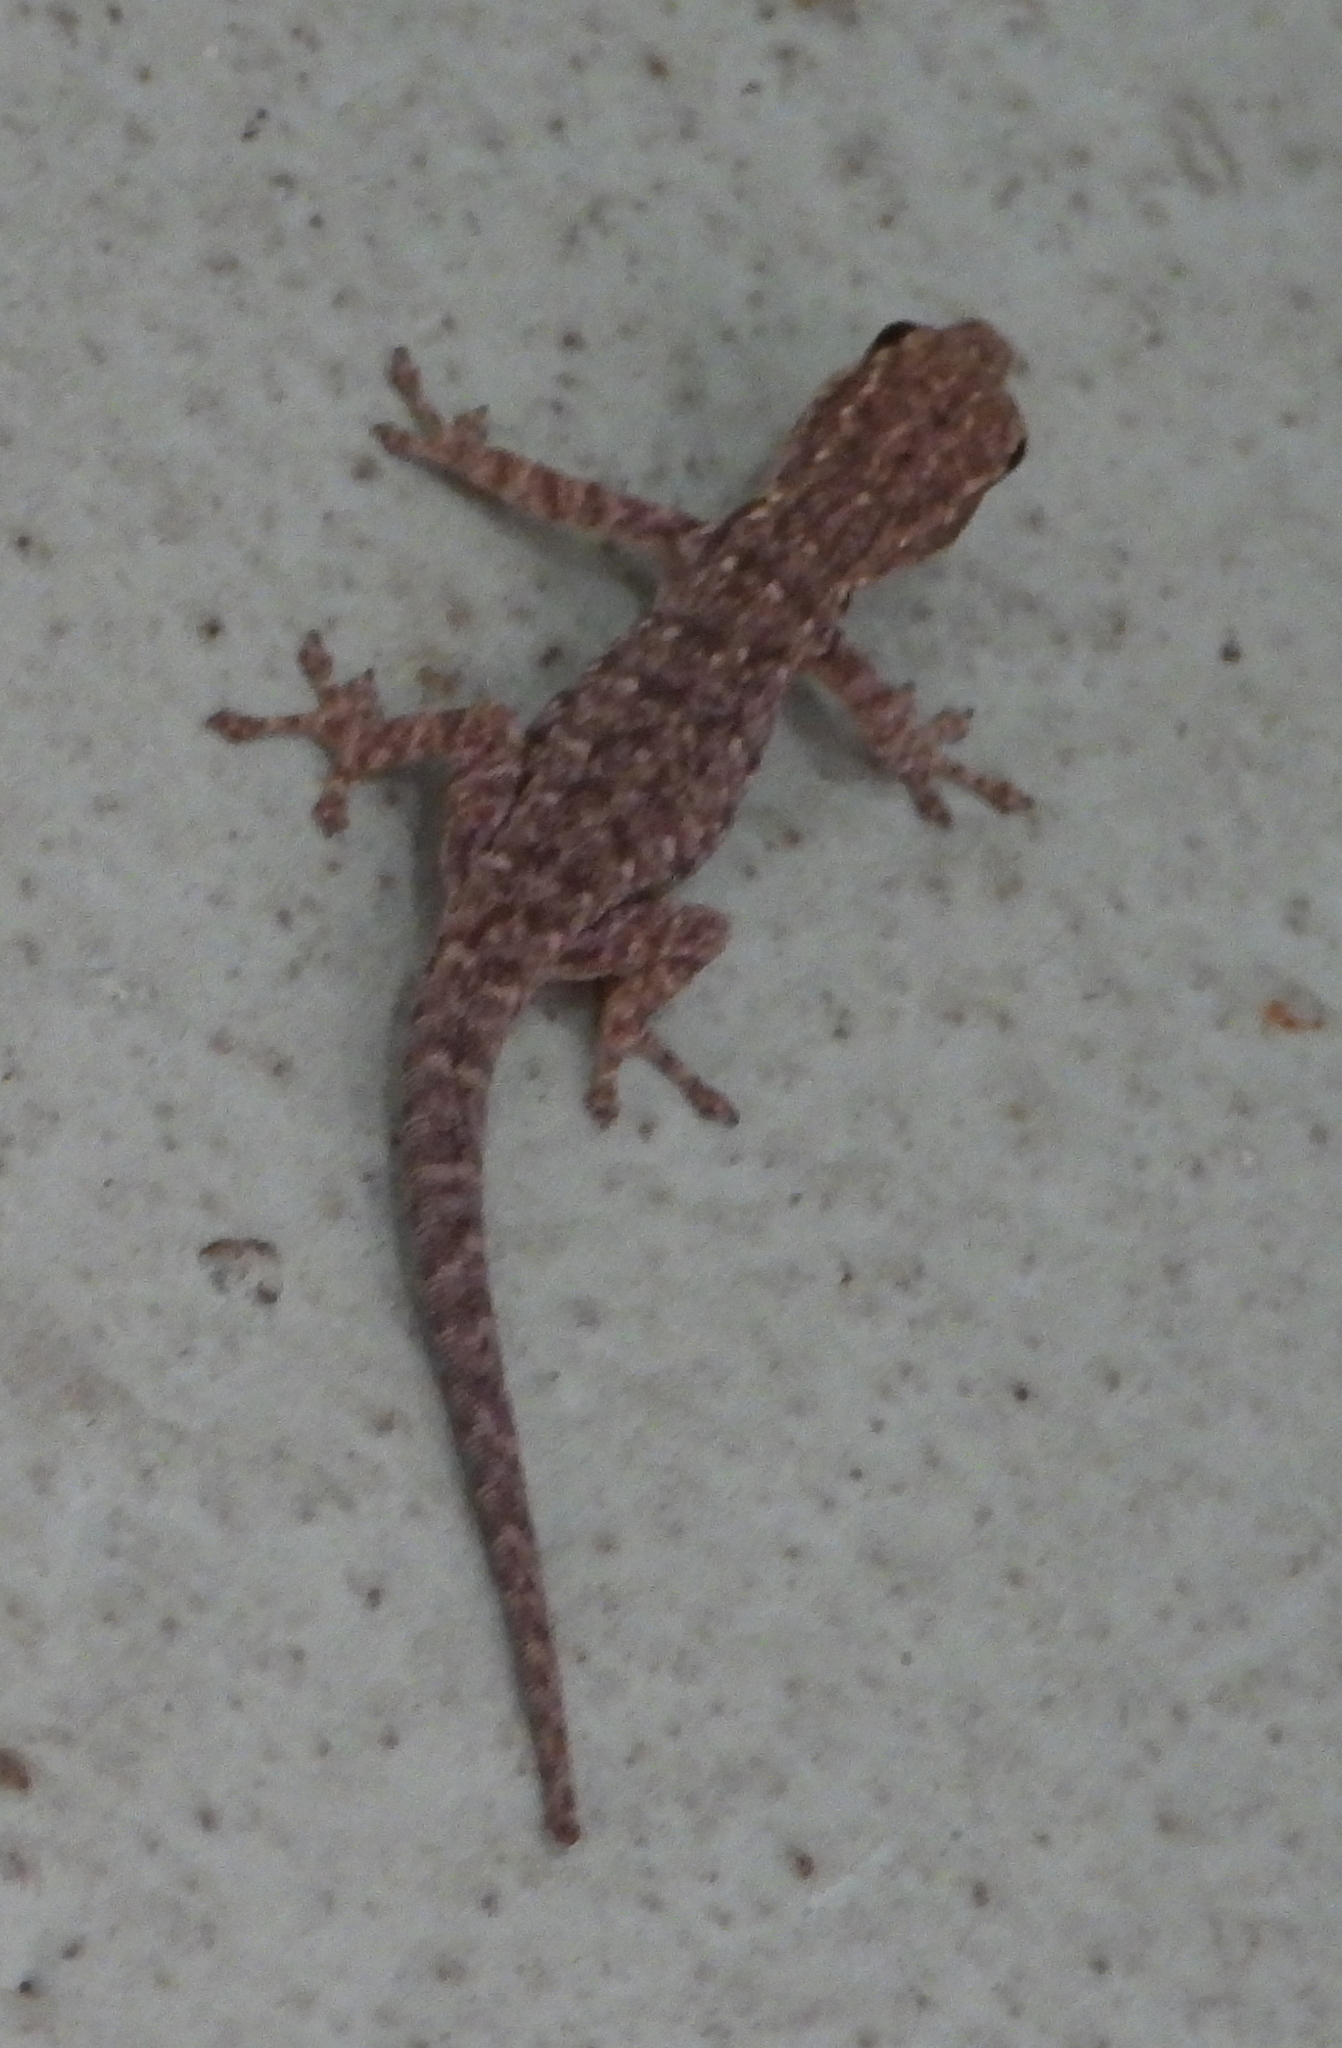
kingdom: Animalia
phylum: Chordata
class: Squamata
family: Gekkonidae
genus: Lygodactylus
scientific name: Lygodactylus chobiensis
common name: Okavango dwarf gecko
